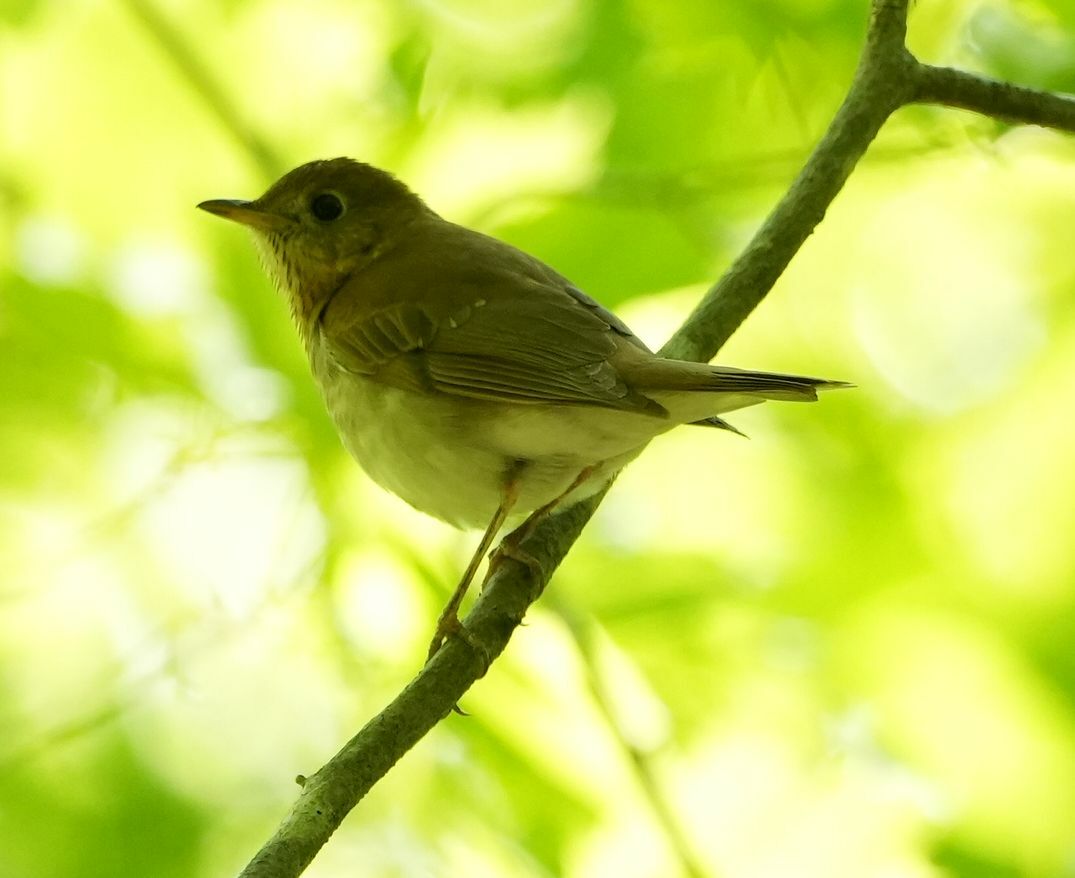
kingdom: Animalia
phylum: Chordata
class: Aves
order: Passeriformes
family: Turdidae
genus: Catharus
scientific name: Catharus fuscescens
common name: Veery
